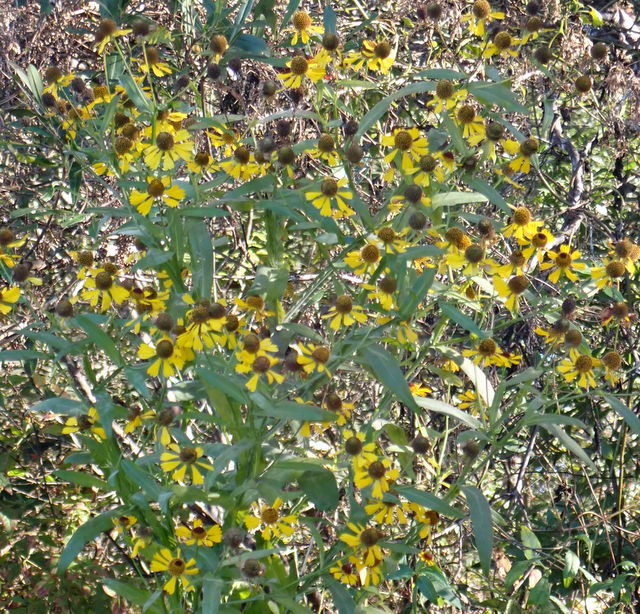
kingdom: Plantae
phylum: Tracheophyta
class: Magnoliopsida
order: Asterales
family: Asteraceae
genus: Helenium
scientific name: Helenium flexuosum
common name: Naked-flowered sneezeweed
